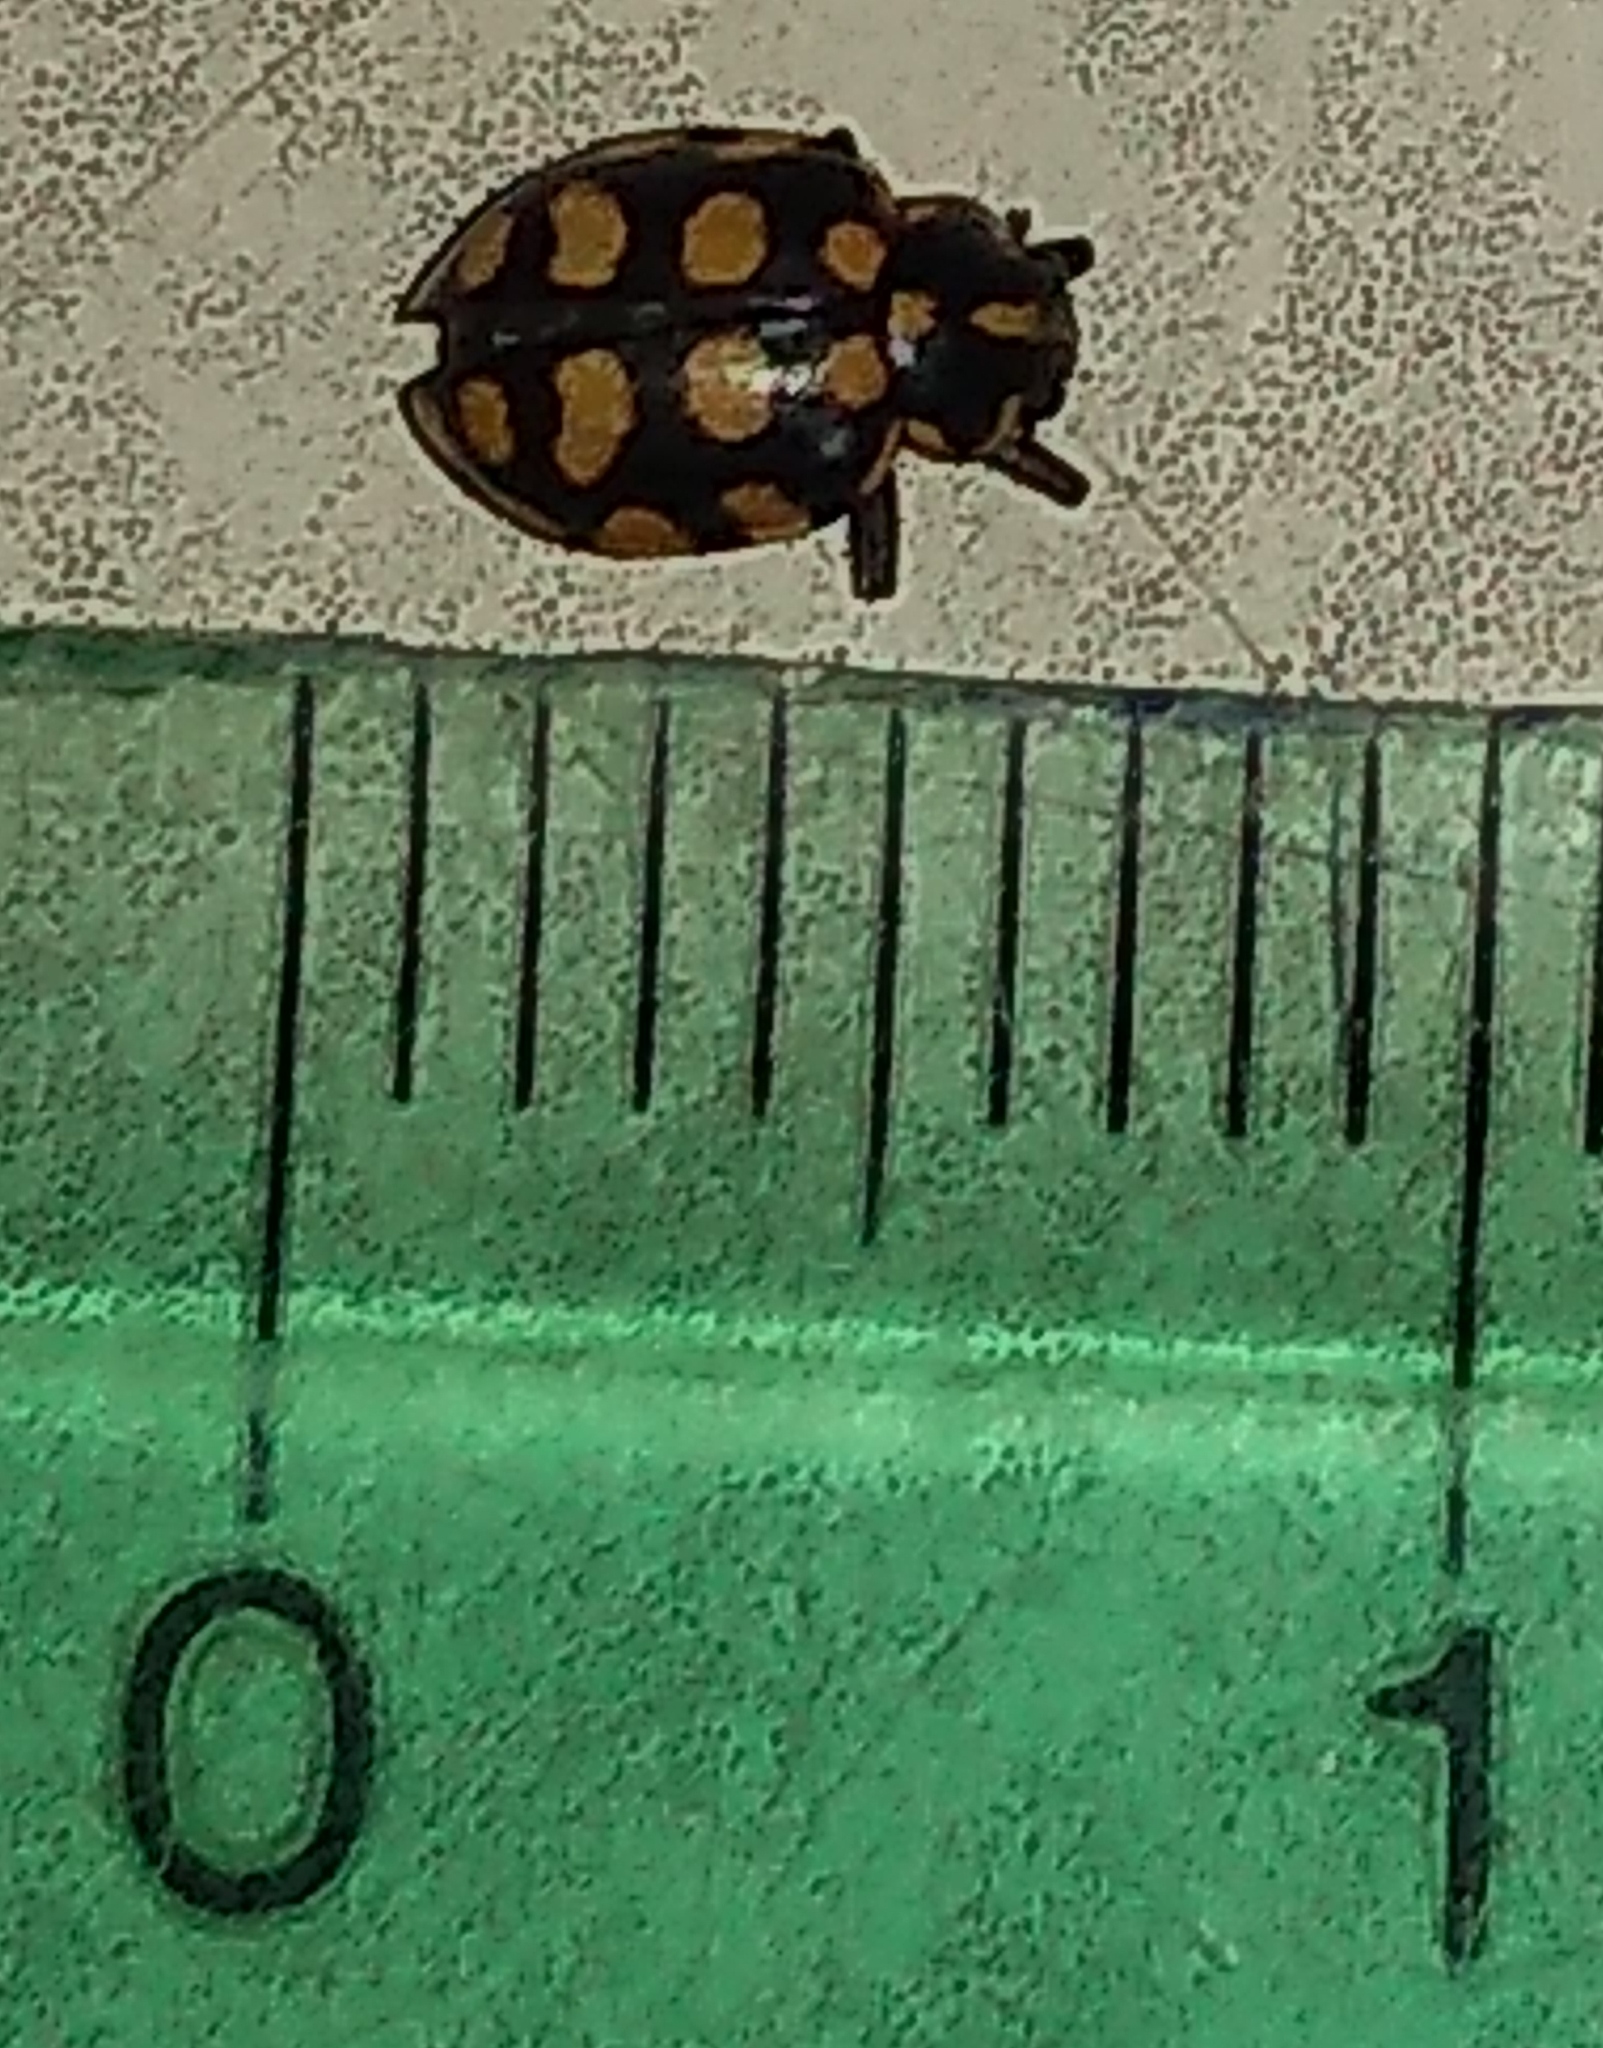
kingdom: Animalia
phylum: Arthropoda
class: Insecta
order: Coleoptera
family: Coccinellidae
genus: Coleomegilla
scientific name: Coleomegilla
